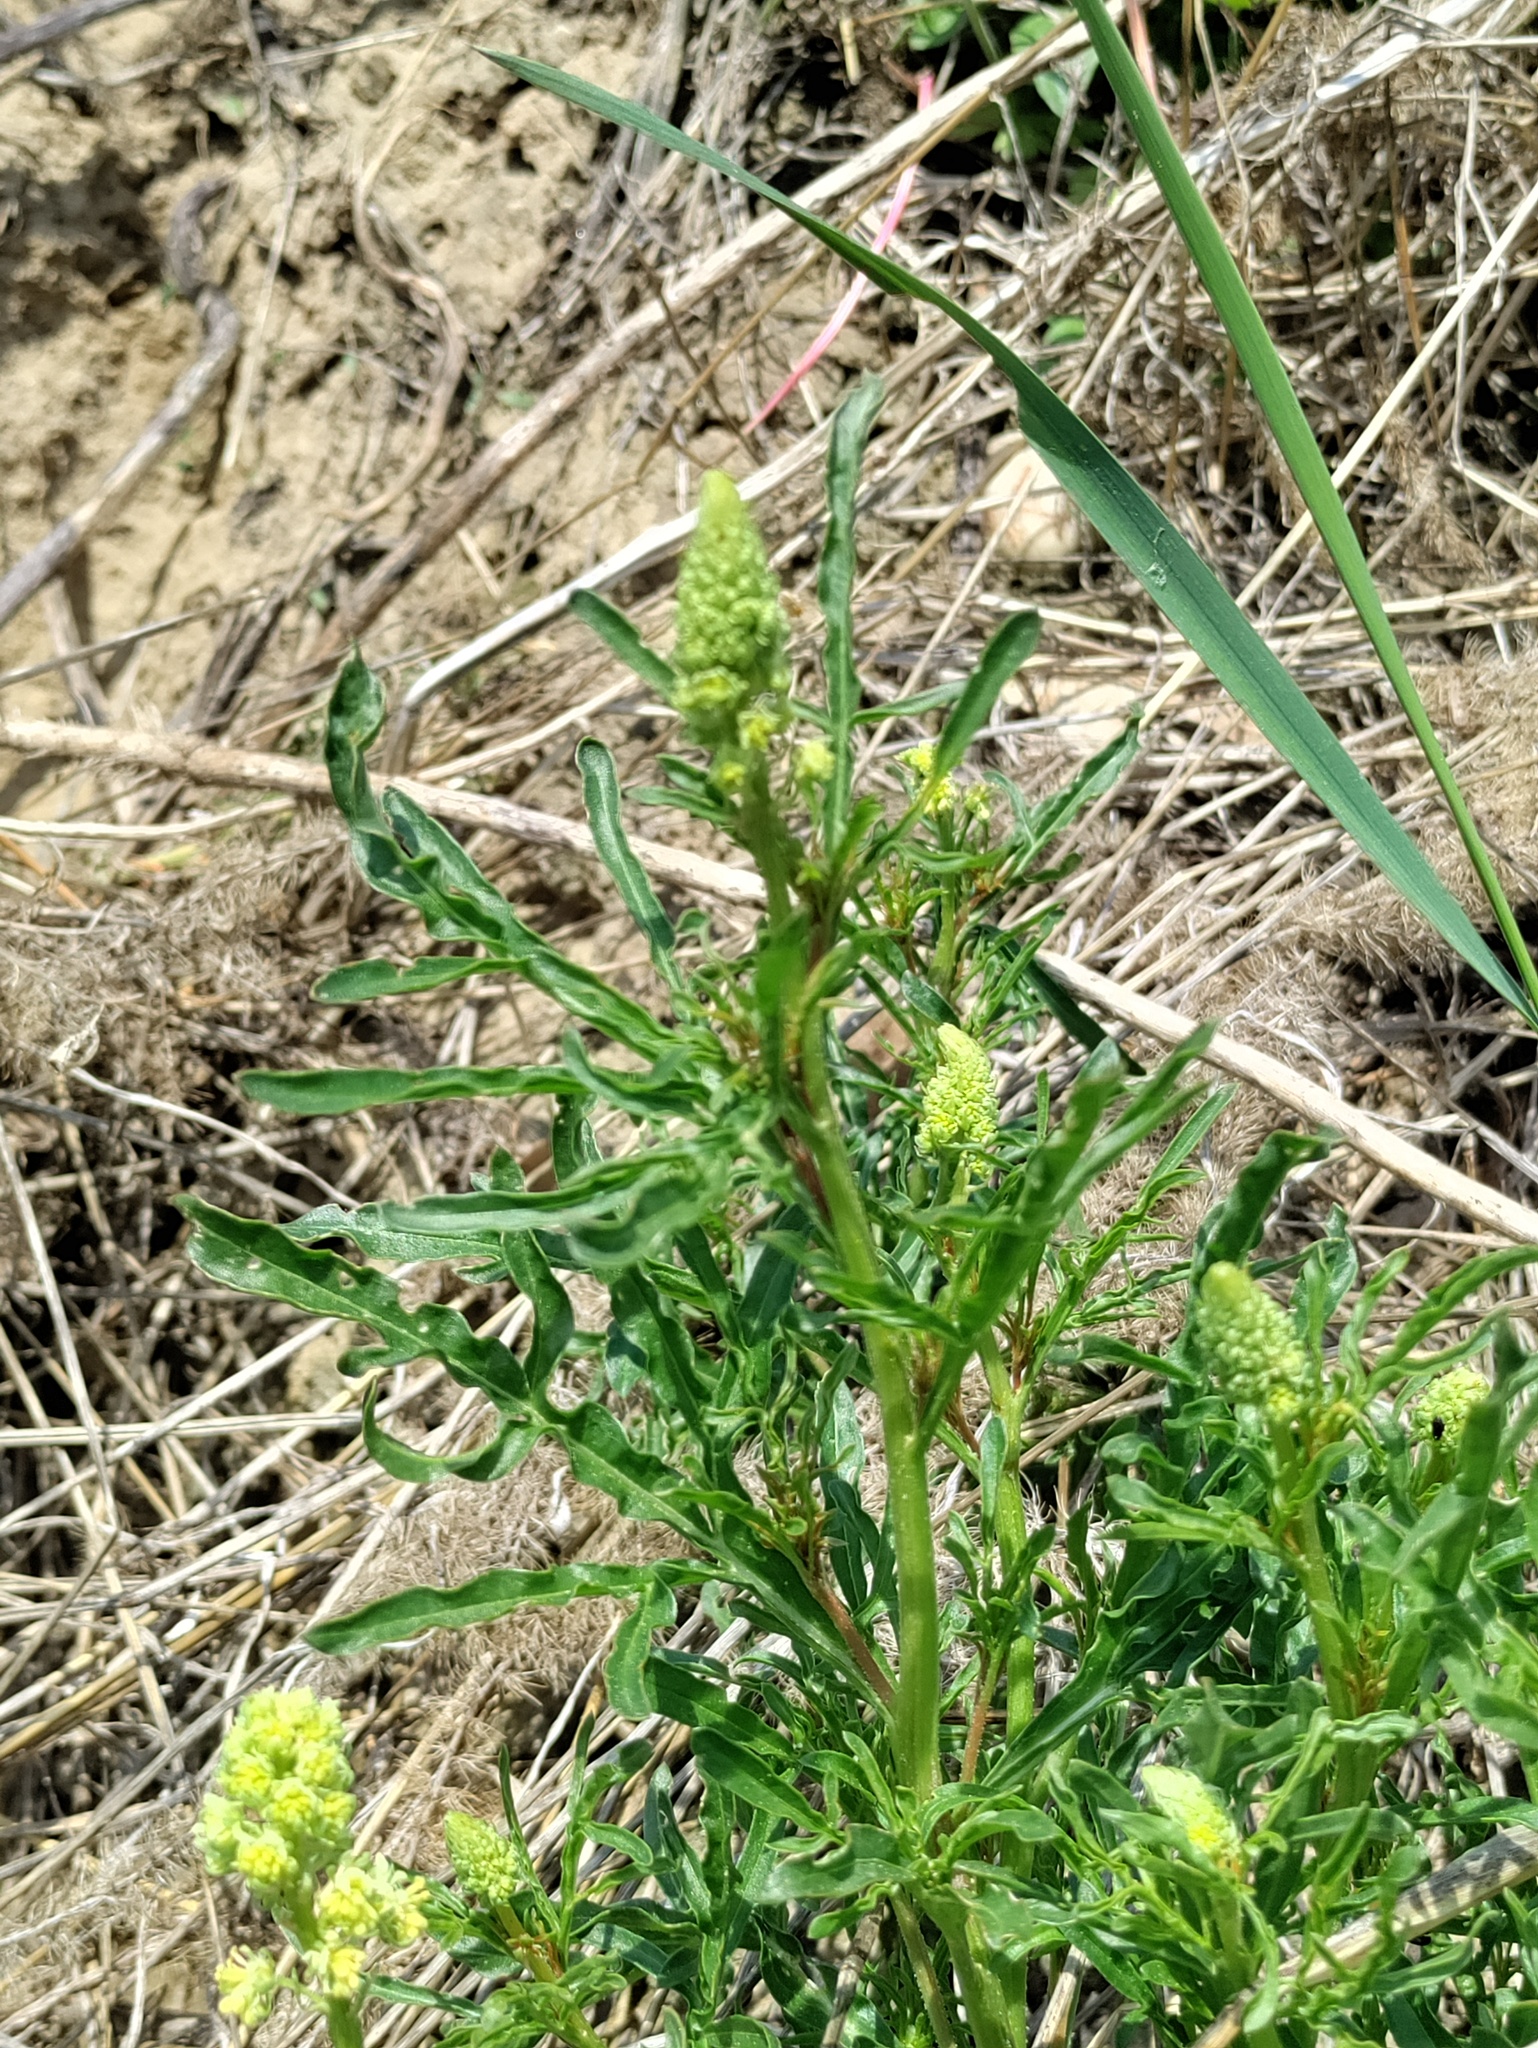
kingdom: Plantae
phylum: Tracheophyta
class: Magnoliopsida
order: Brassicales
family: Resedaceae
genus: Reseda
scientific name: Reseda lutea
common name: Wild mignonette
